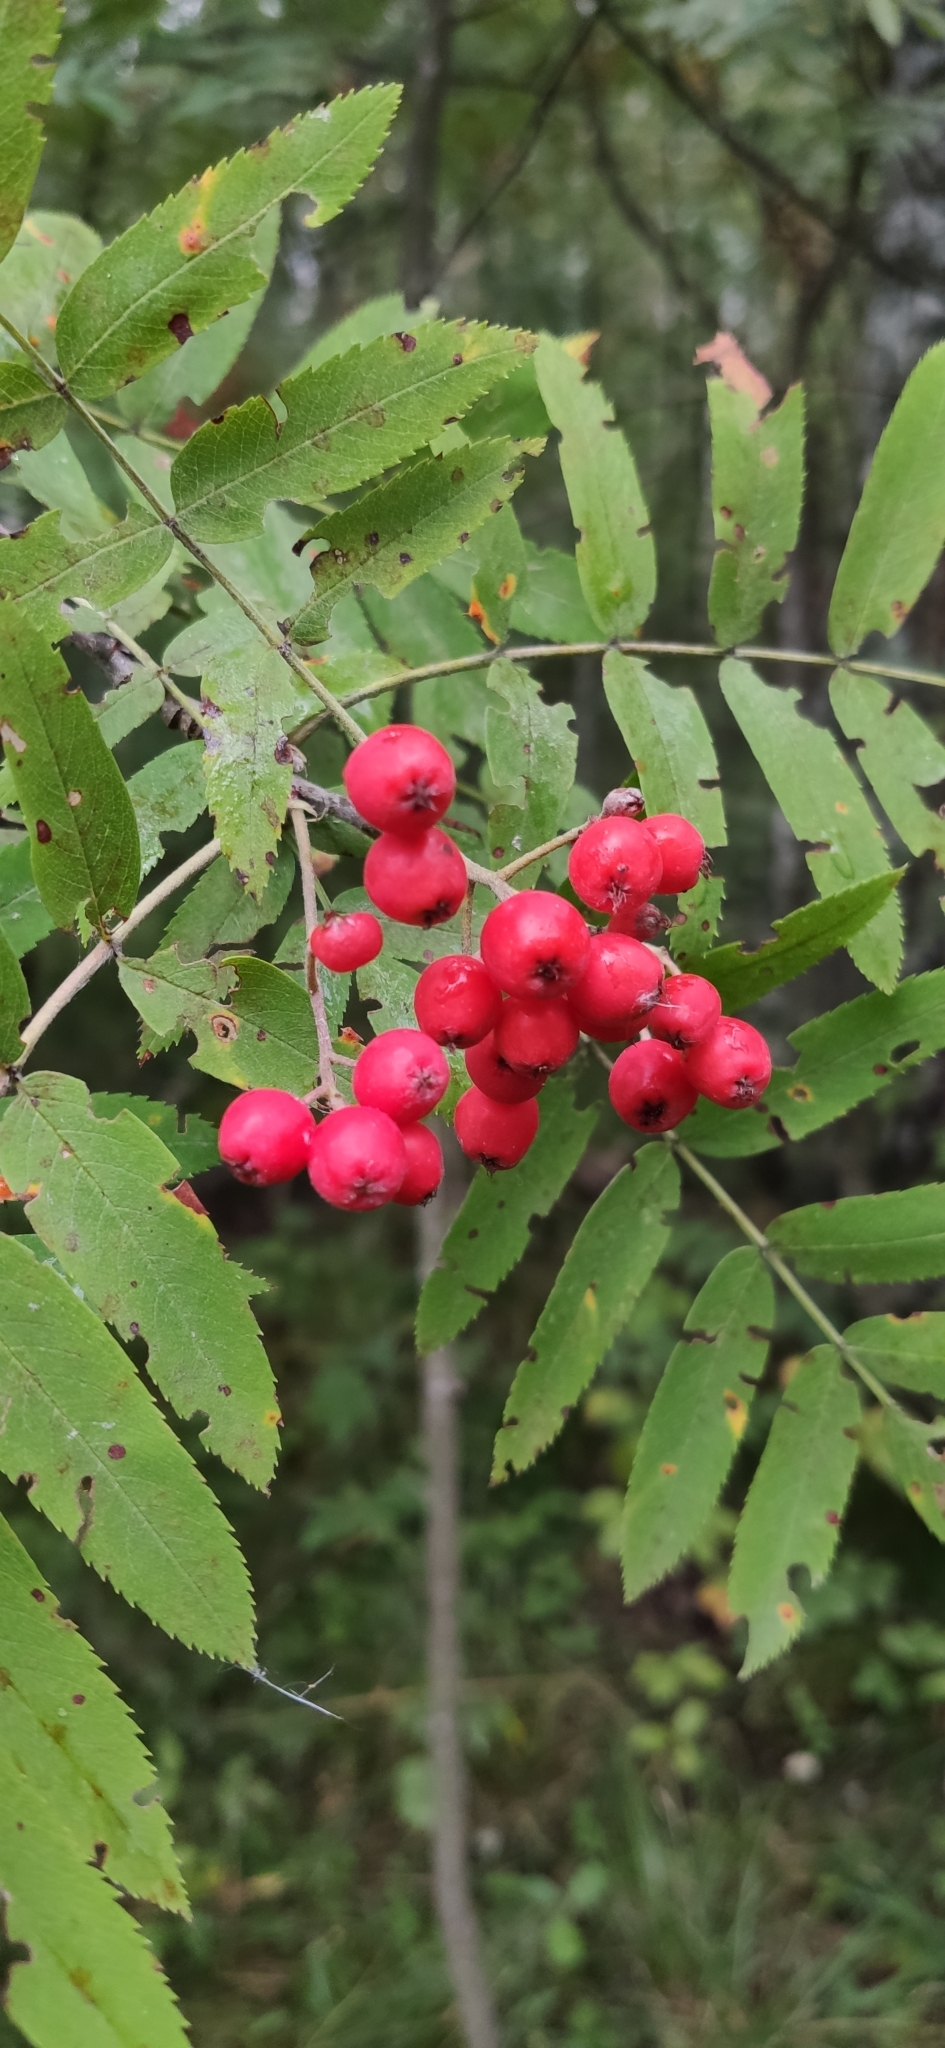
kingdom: Plantae
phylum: Tracheophyta
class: Magnoliopsida
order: Rosales
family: Rosaceae
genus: Sorbus
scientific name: Sorbus aucuparia
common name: Rowan
